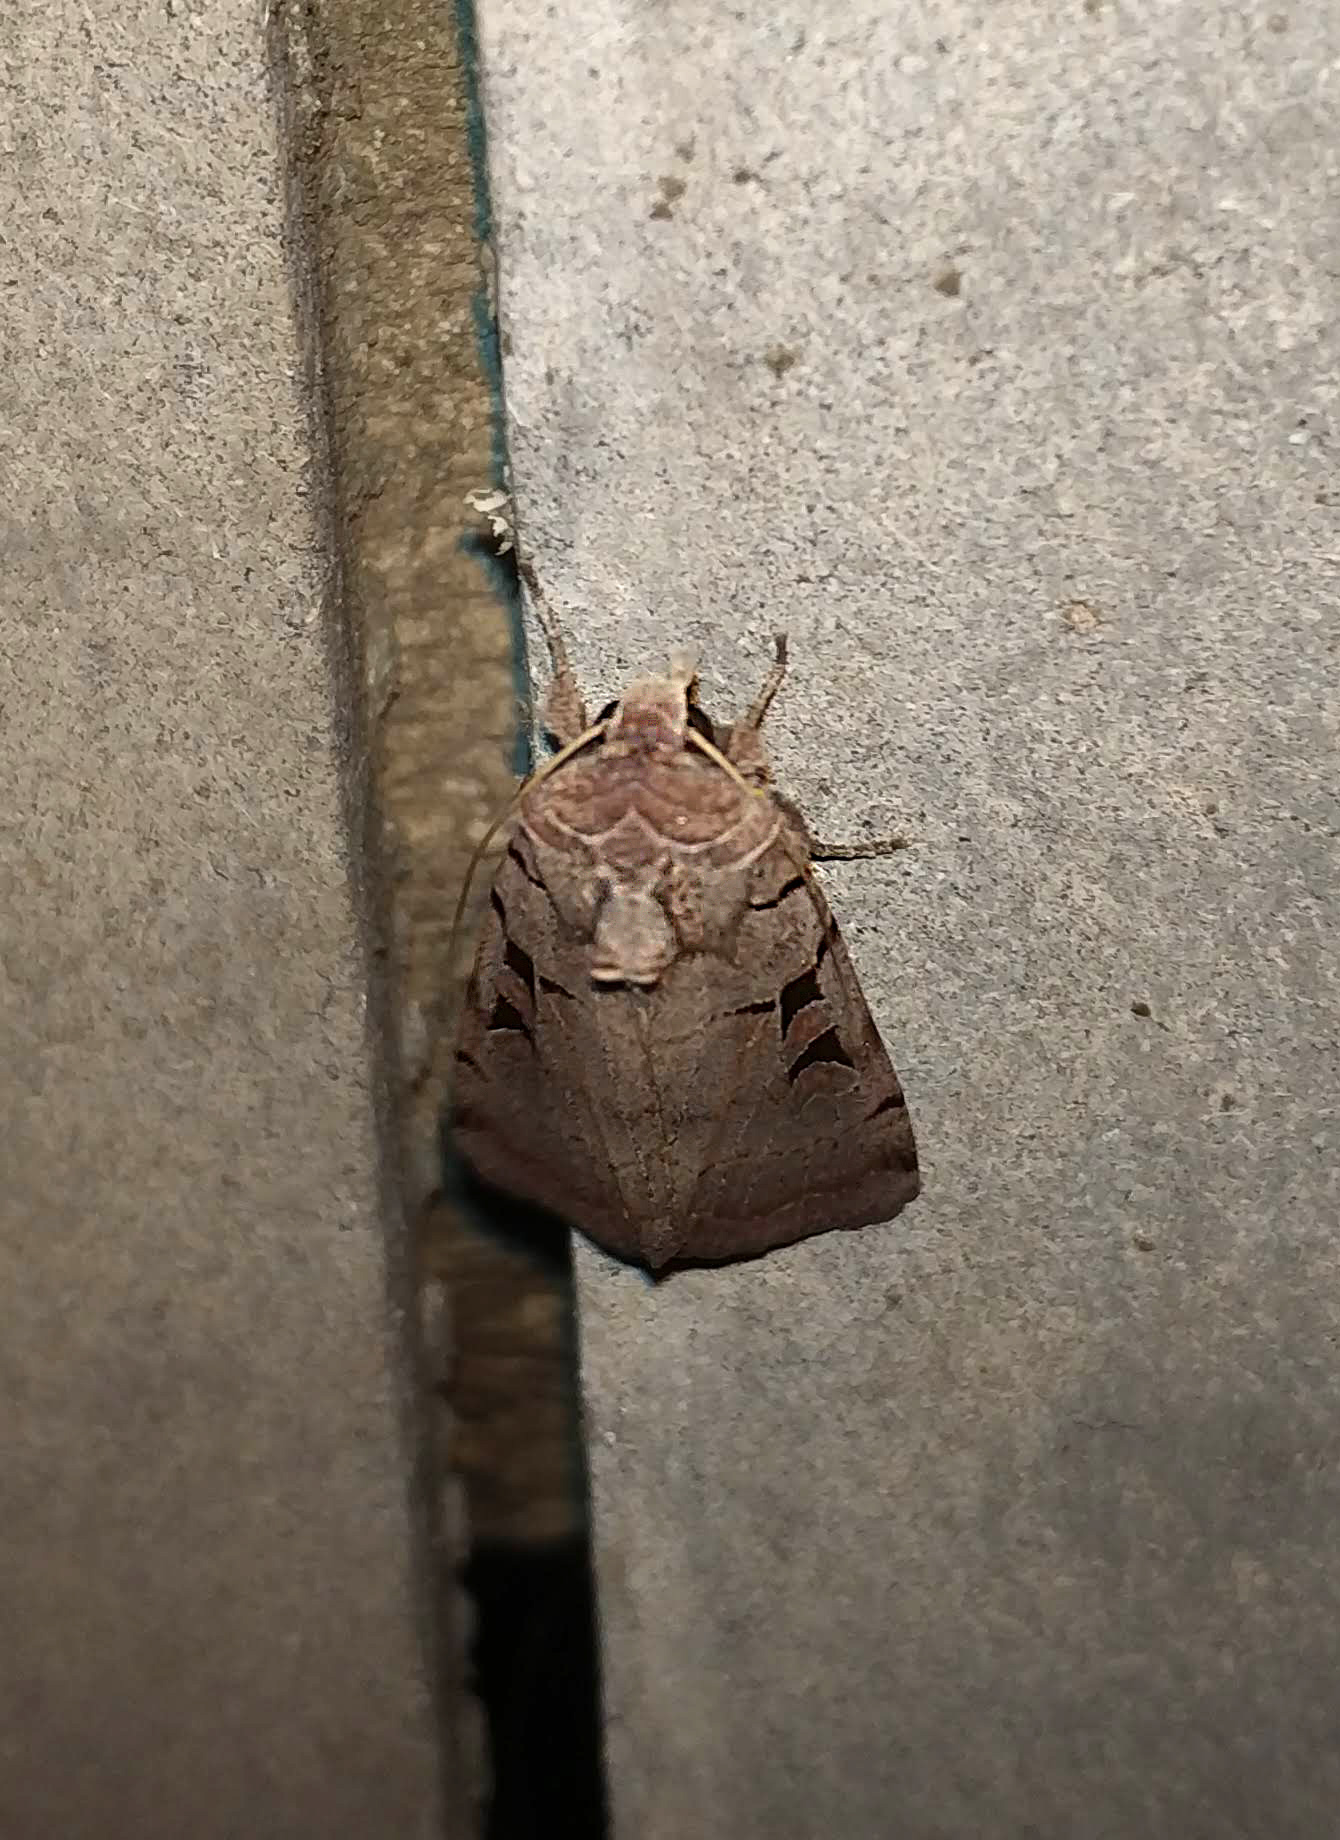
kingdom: Animalia
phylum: Arthropoda
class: Insecta
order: Lepidoptera
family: Noctuidae
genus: Eugnorisma
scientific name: Eugnorisma chaldaica
